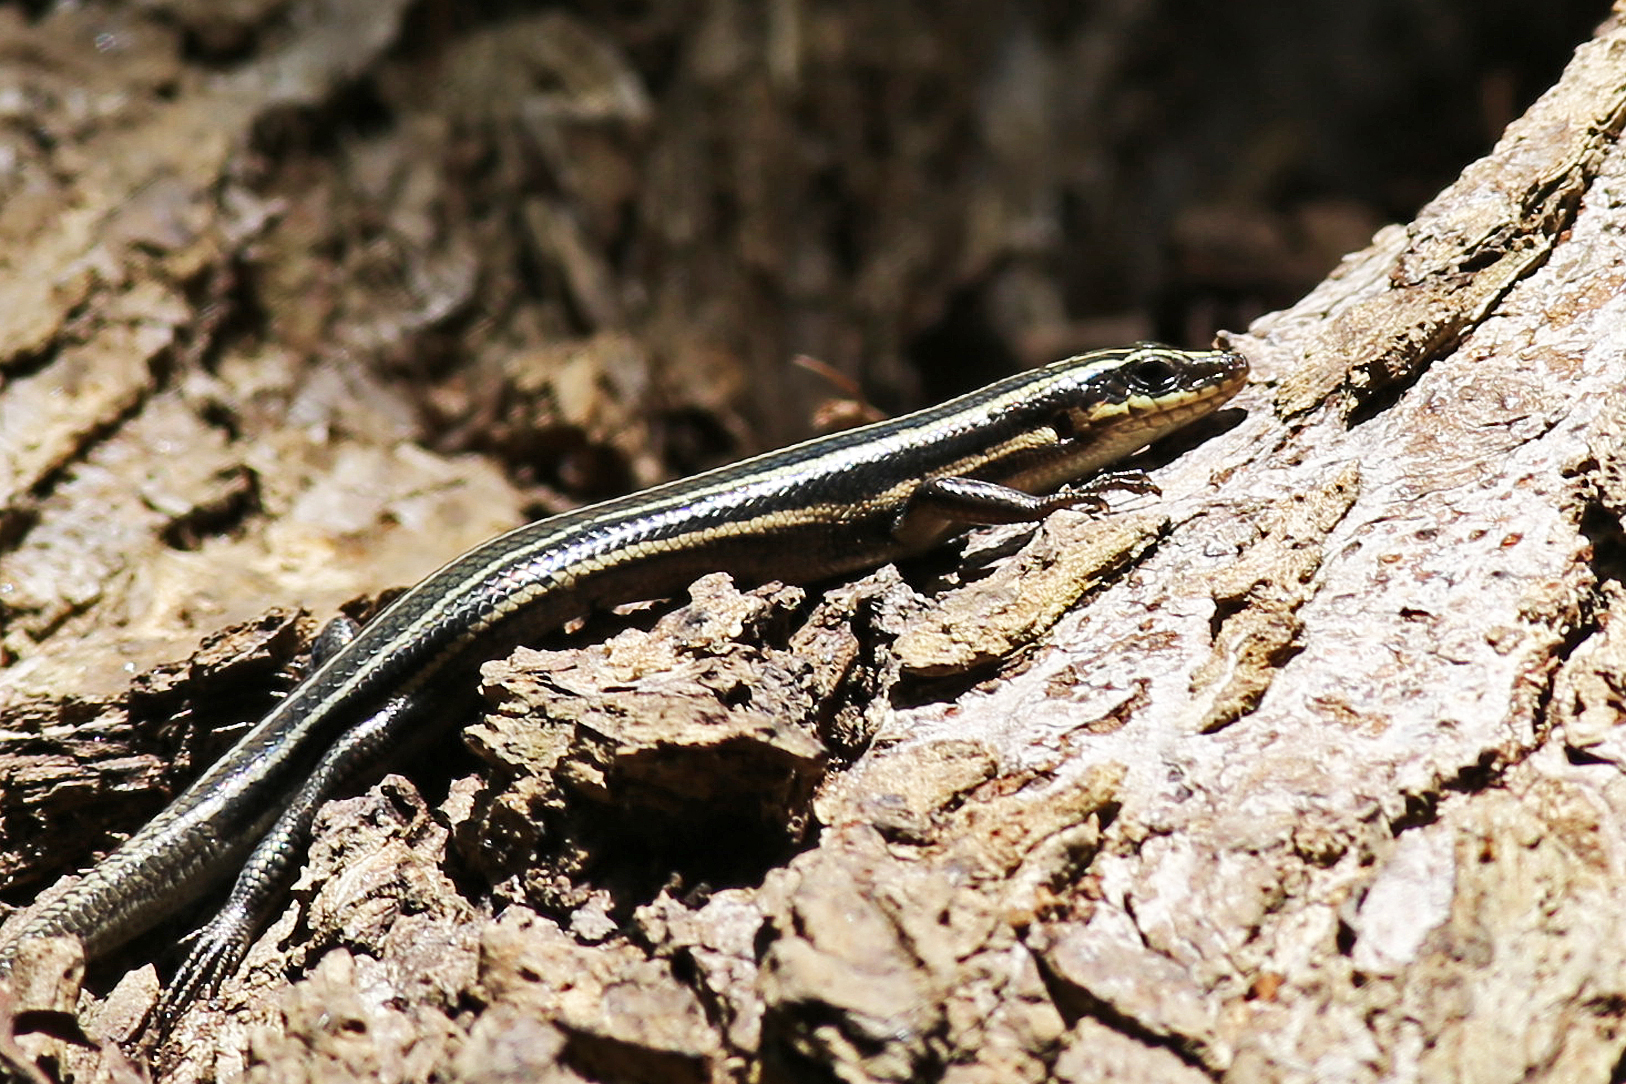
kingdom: Animalia
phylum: Chordata
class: Squamata
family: Scincidae
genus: Plestiodon
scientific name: Plestiodon fasciatus
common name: Five-lined skink
